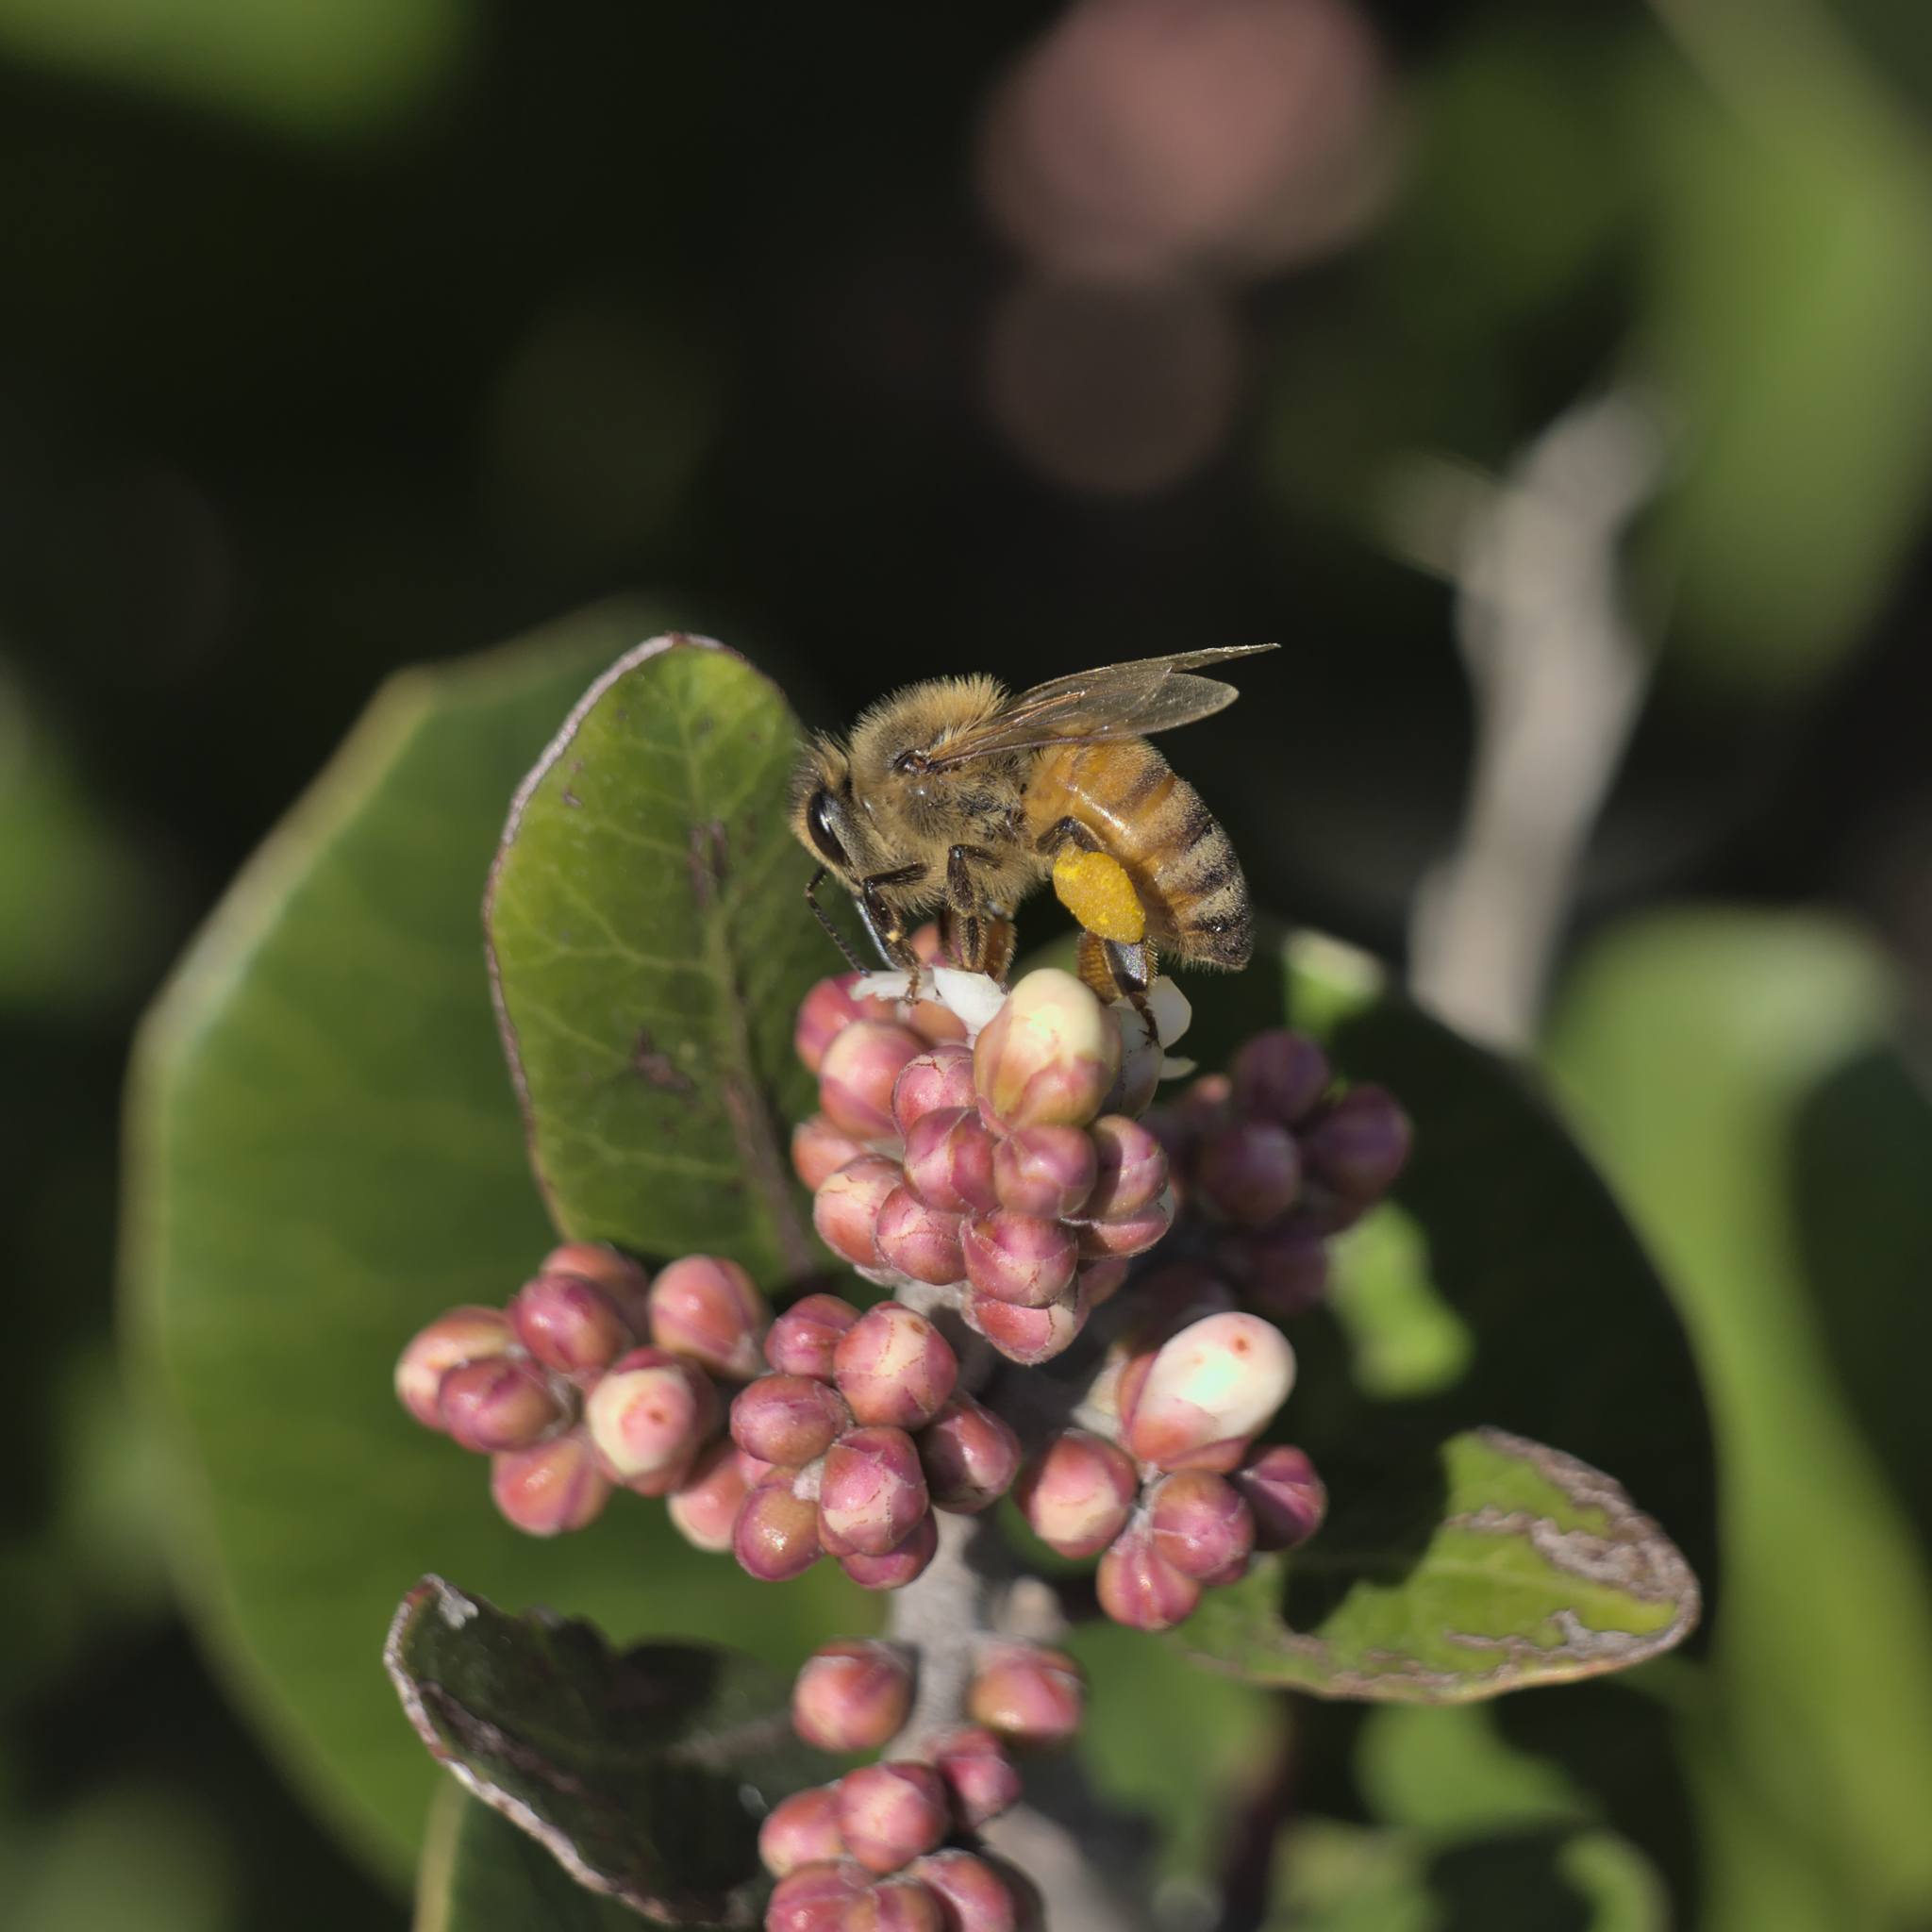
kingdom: Animalia
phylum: Arthropoda
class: Insecta
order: Hymenoptera
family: Apidae
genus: Apis
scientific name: Apis mellifera
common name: Honey bee
